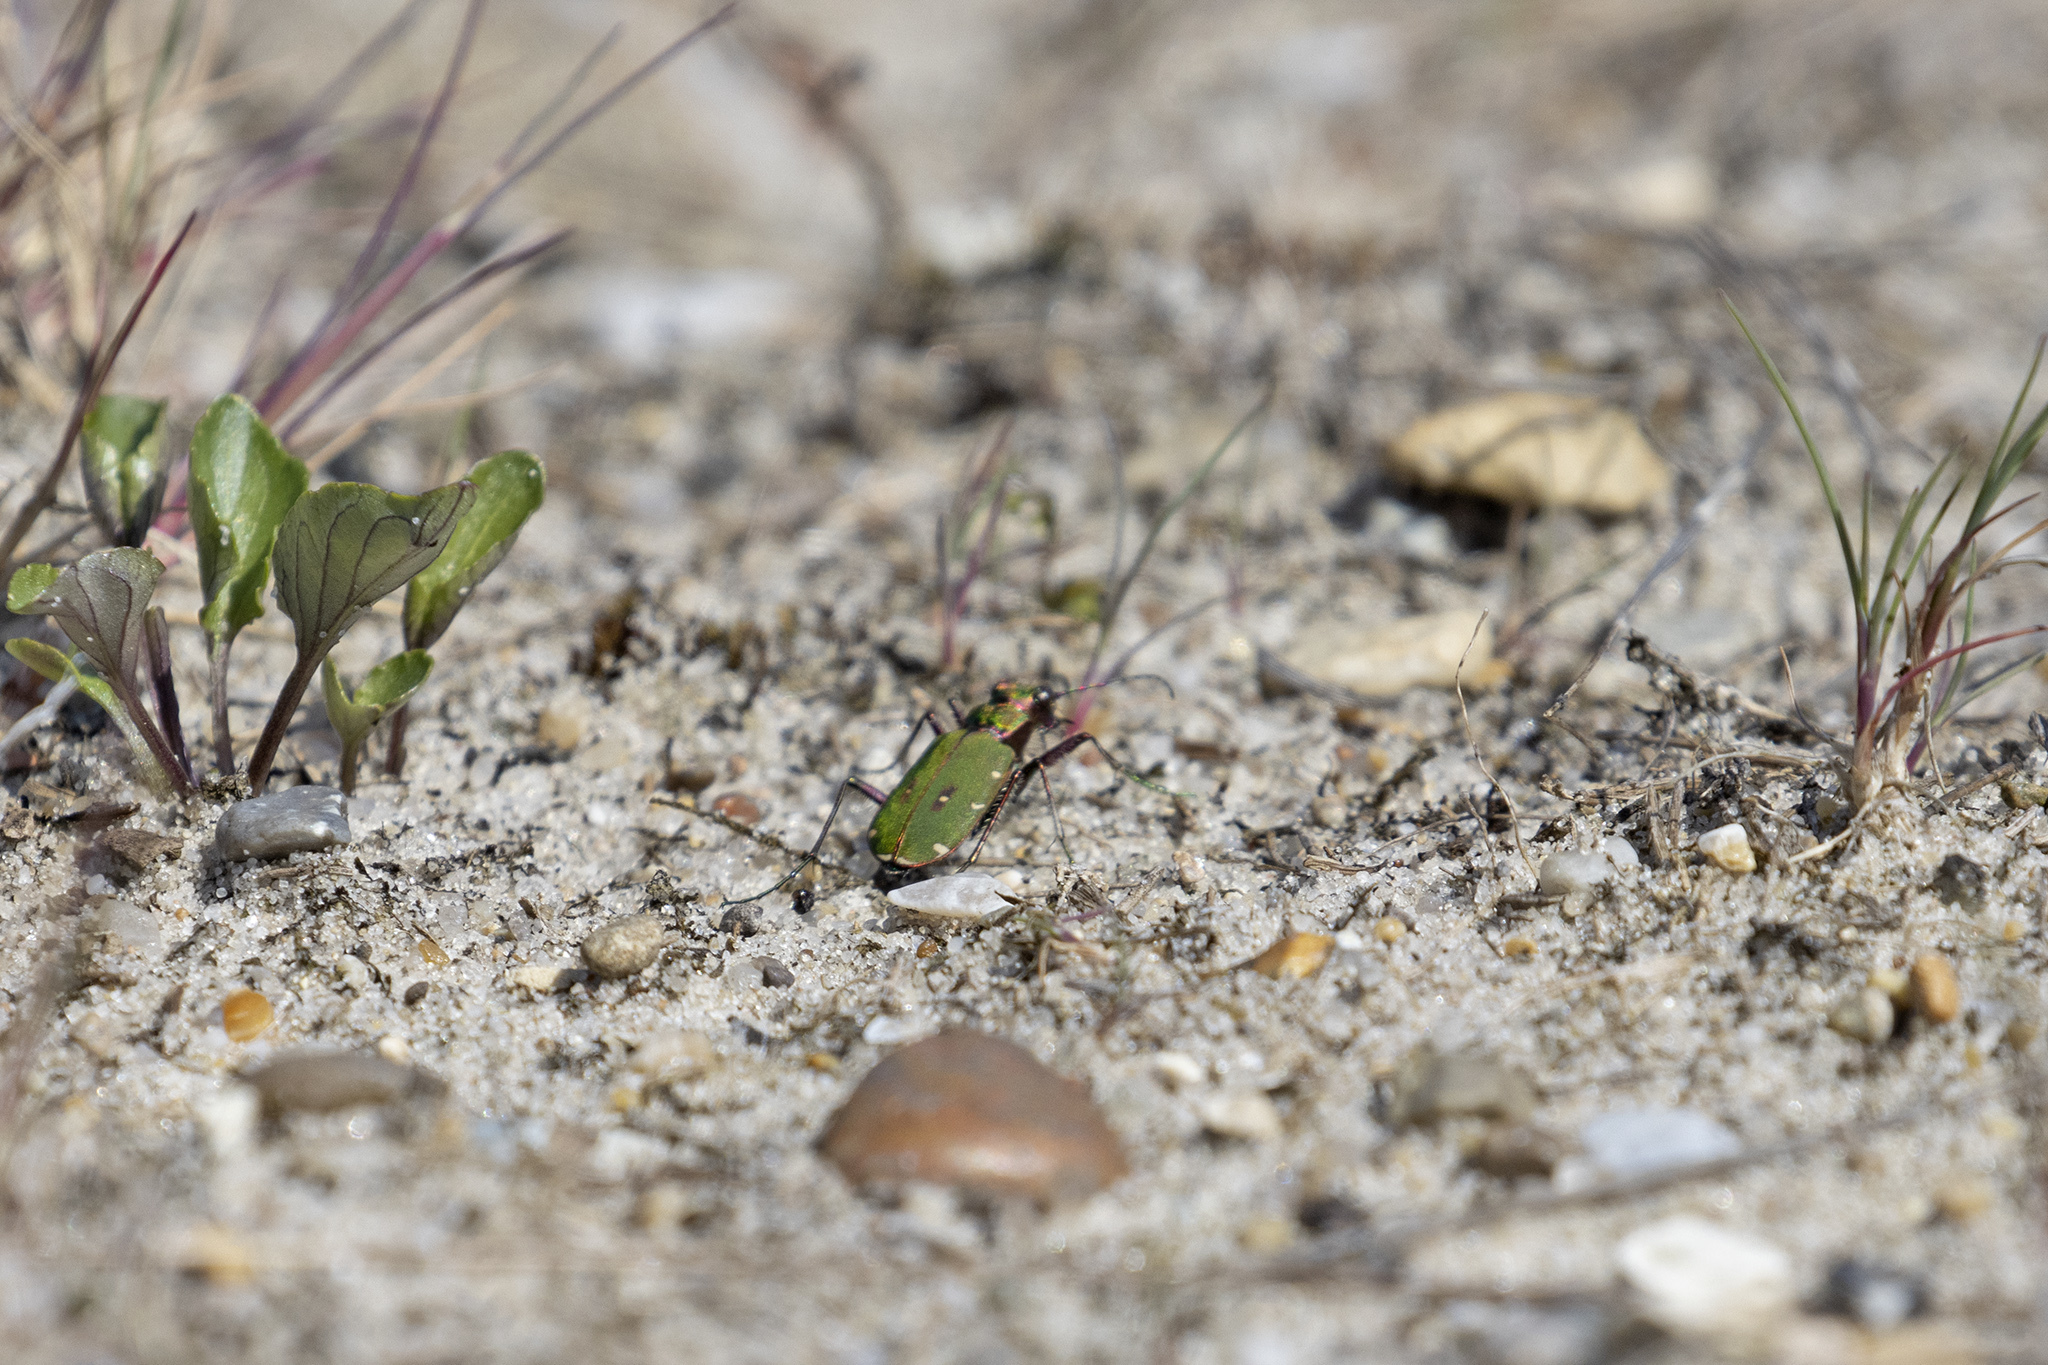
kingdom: Animalia
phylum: Arthropoda
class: Insecta
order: Coleoptera
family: Carabidae
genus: Cicindela
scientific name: Cicindela campestris
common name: Common tiger beetle
